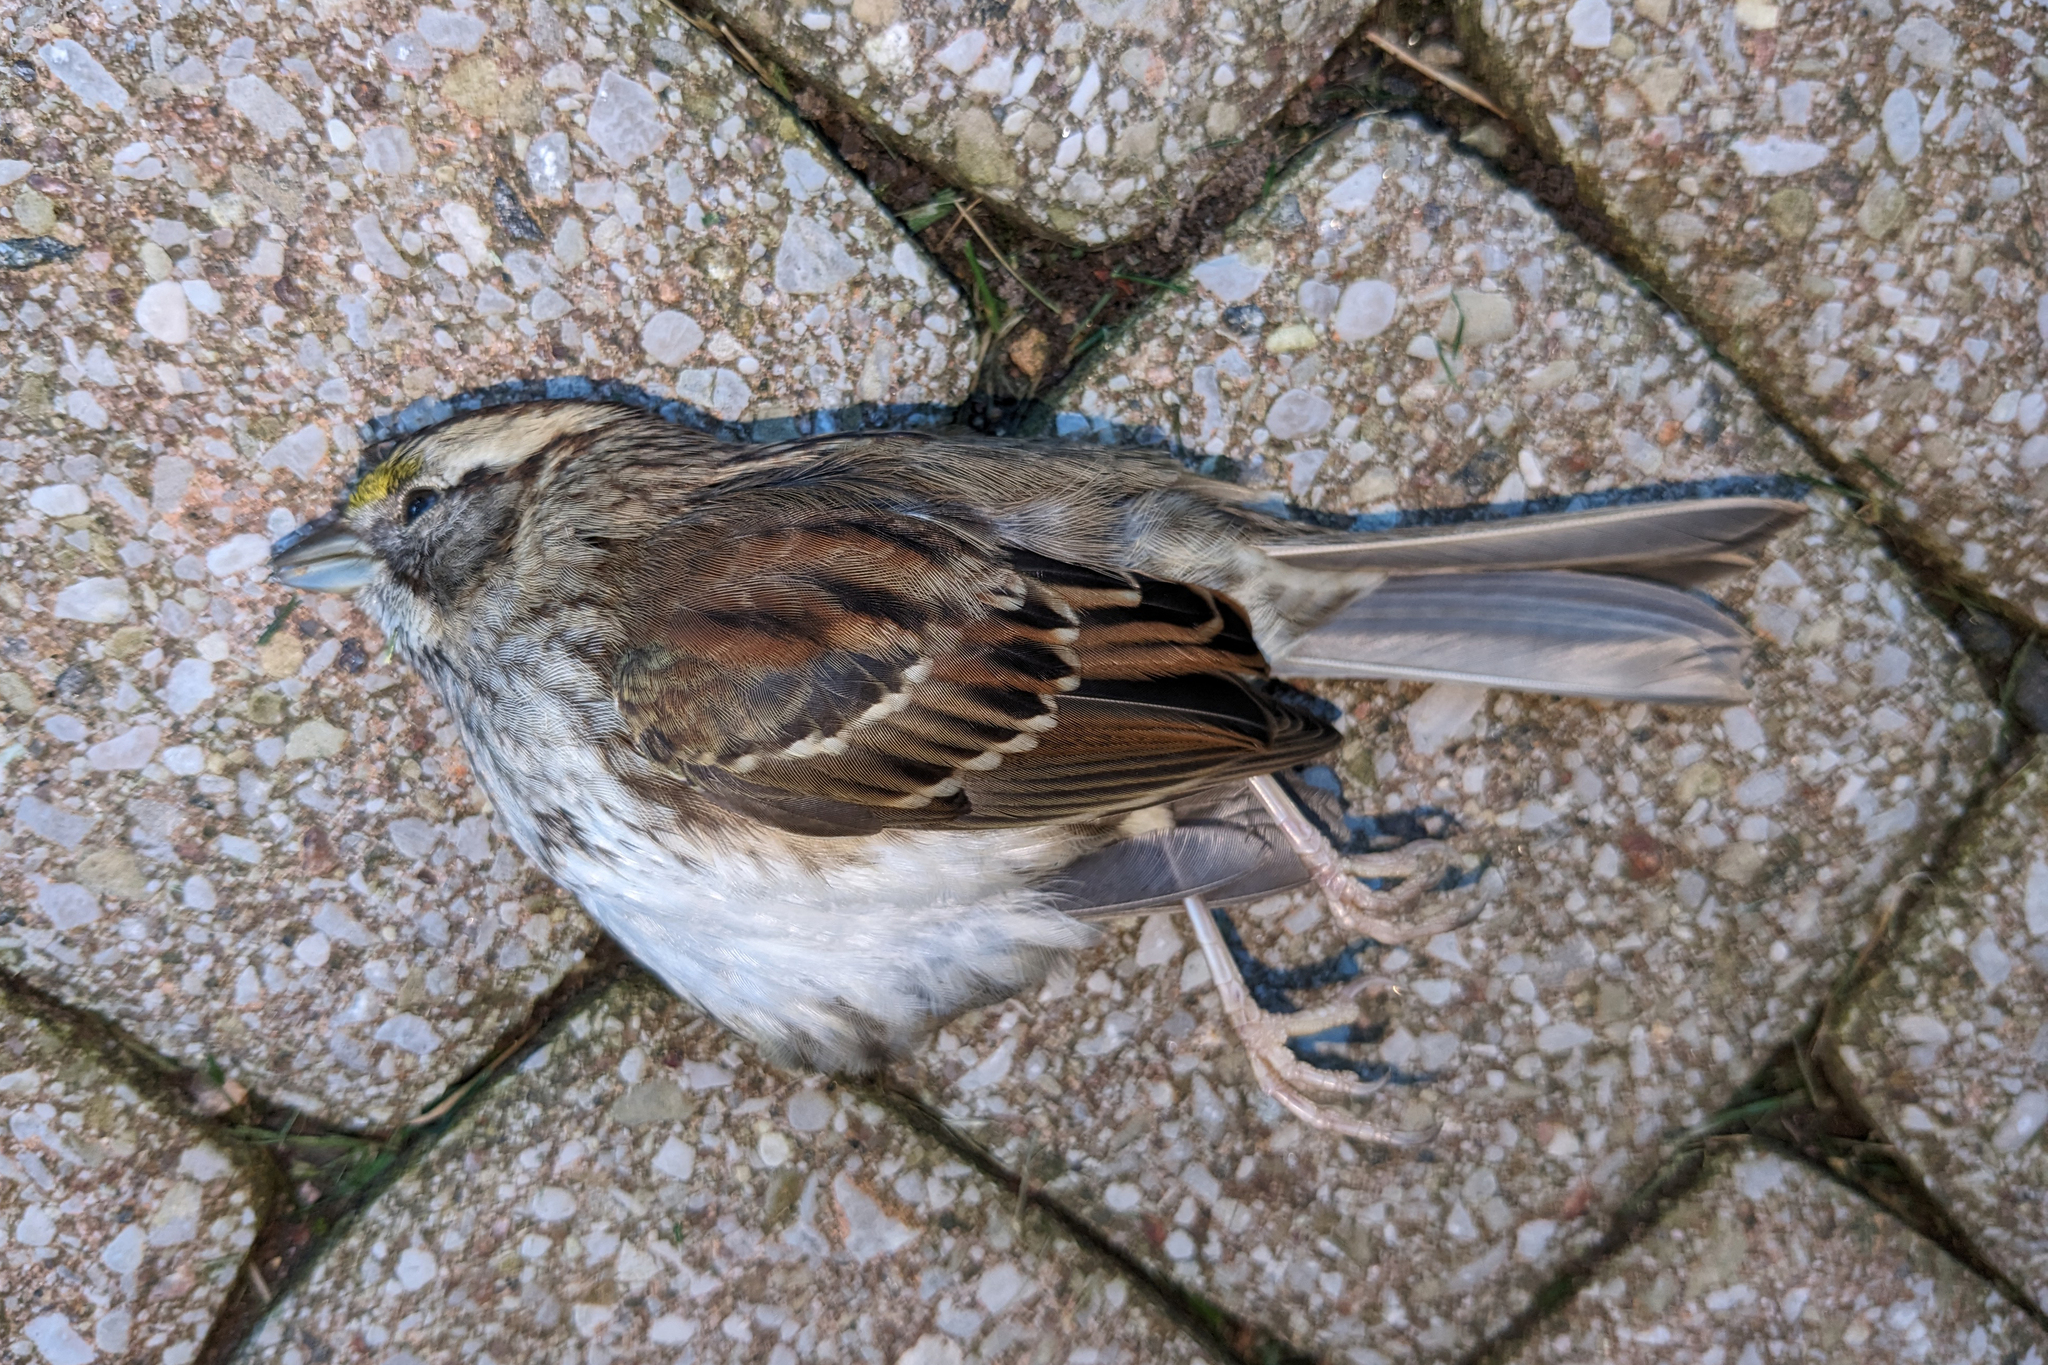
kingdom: Animalia
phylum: Chordata
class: Aves
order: Passeriformes
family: Passerellidae
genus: Zonotrichia
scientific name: Zonotrichia albicollis
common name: White-throated sparrow
